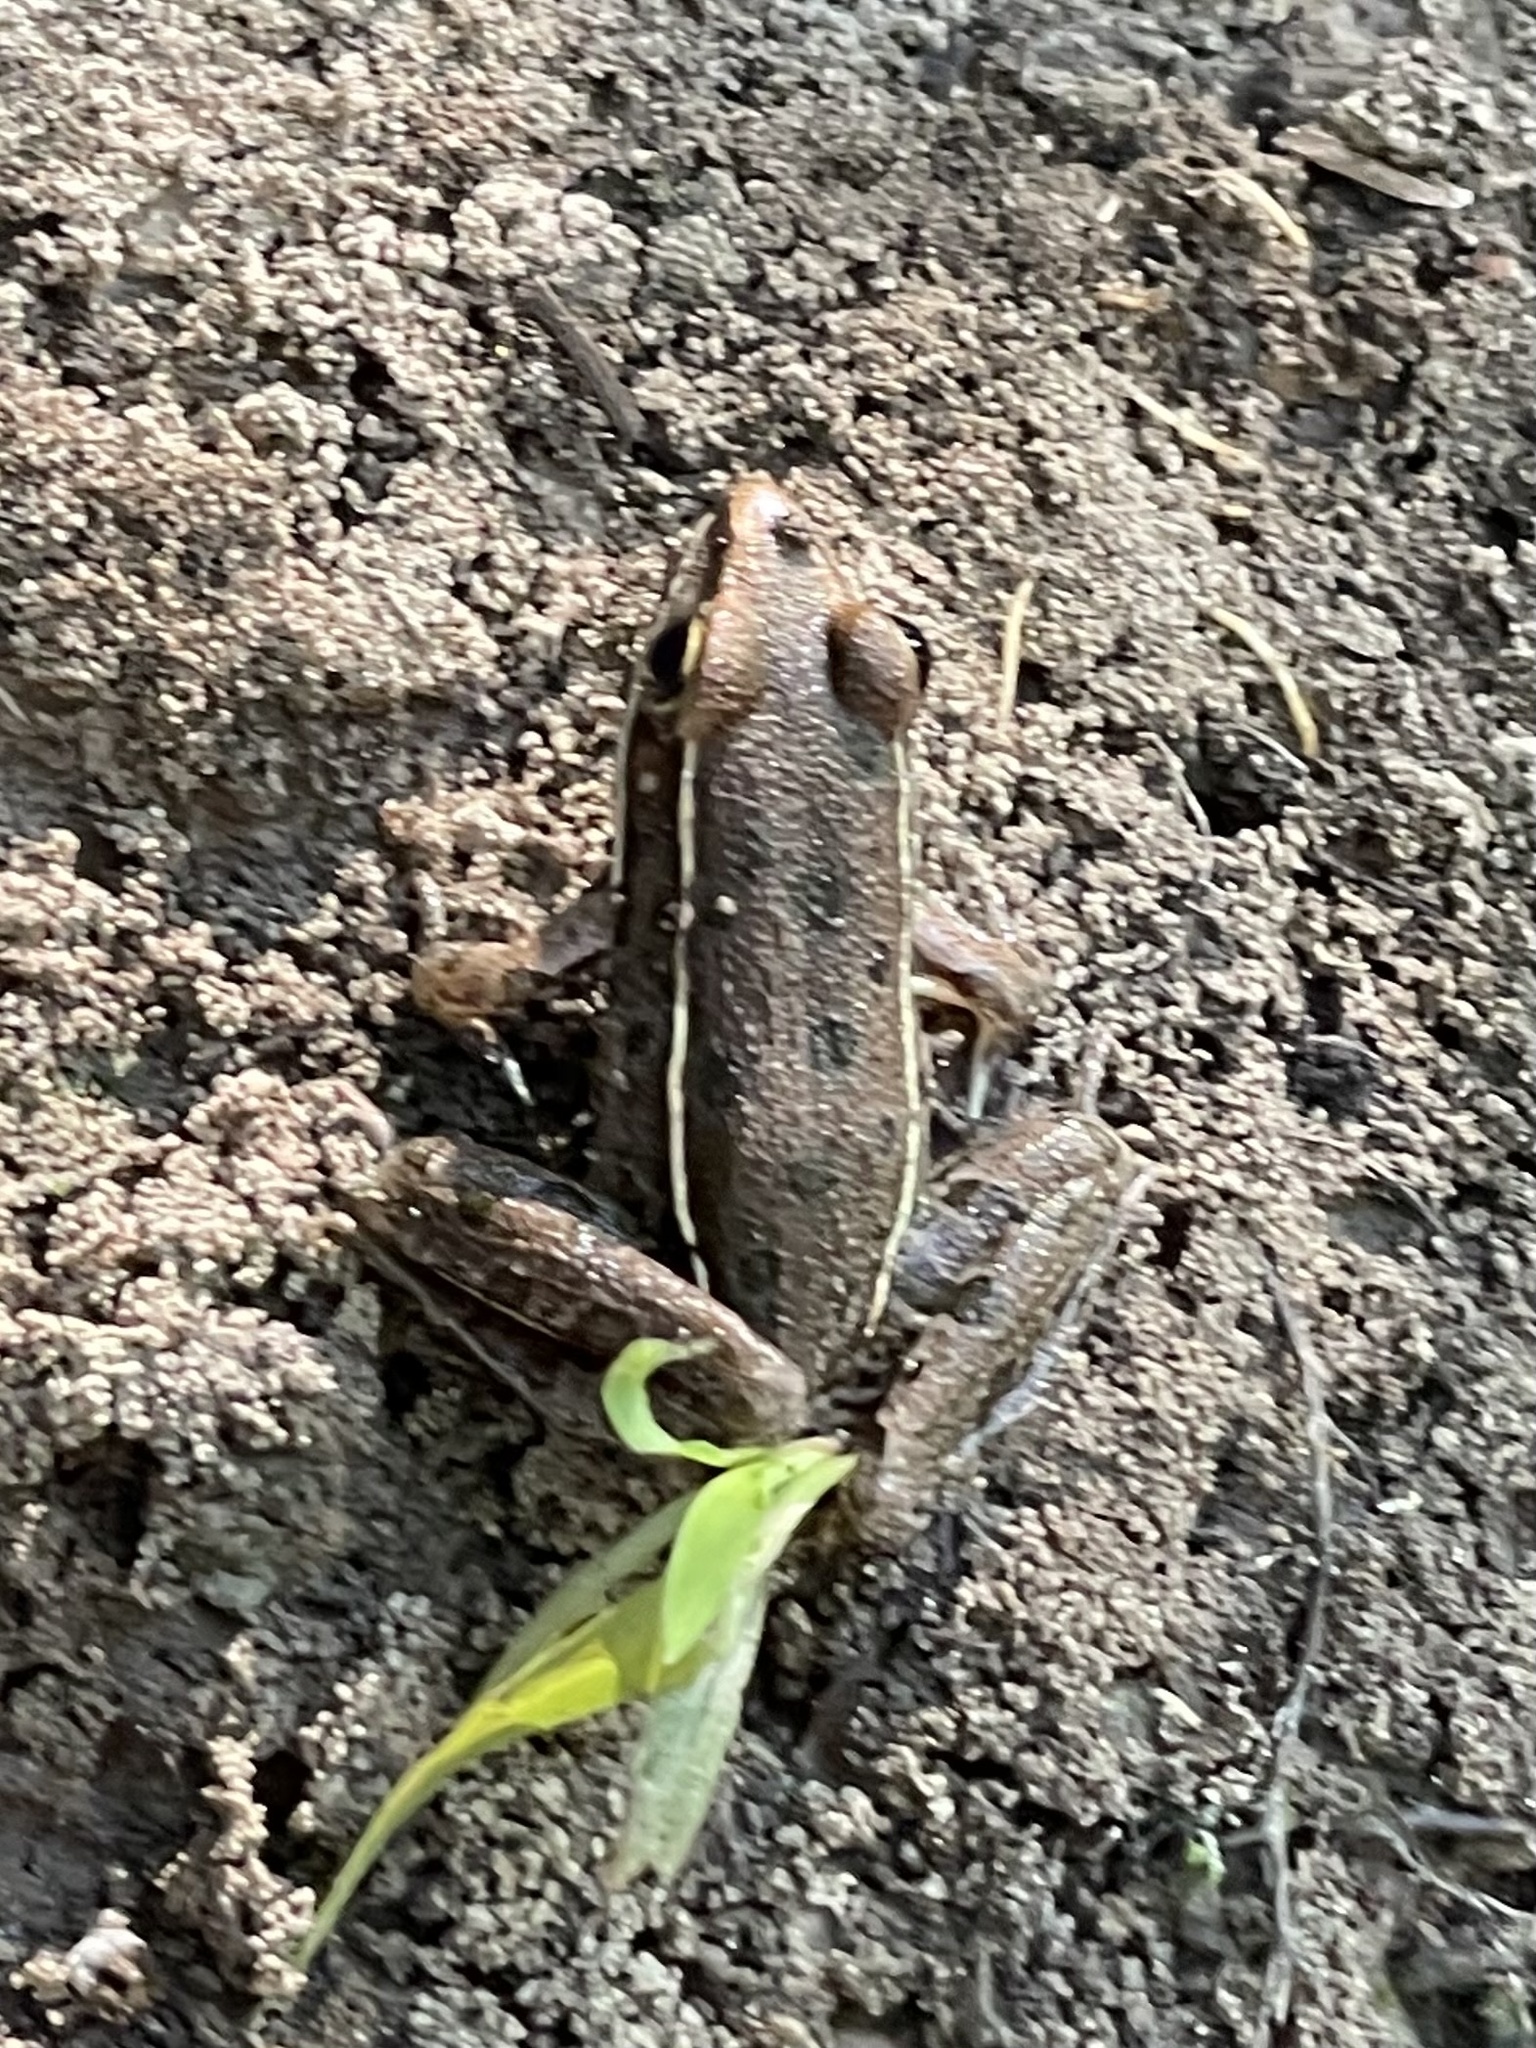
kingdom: Animalia
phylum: Chordata
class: Amphibia
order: Anura
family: Ranidae
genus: Lithobates
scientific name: Lithobates sphenocephalus
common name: Southern leopard frog
